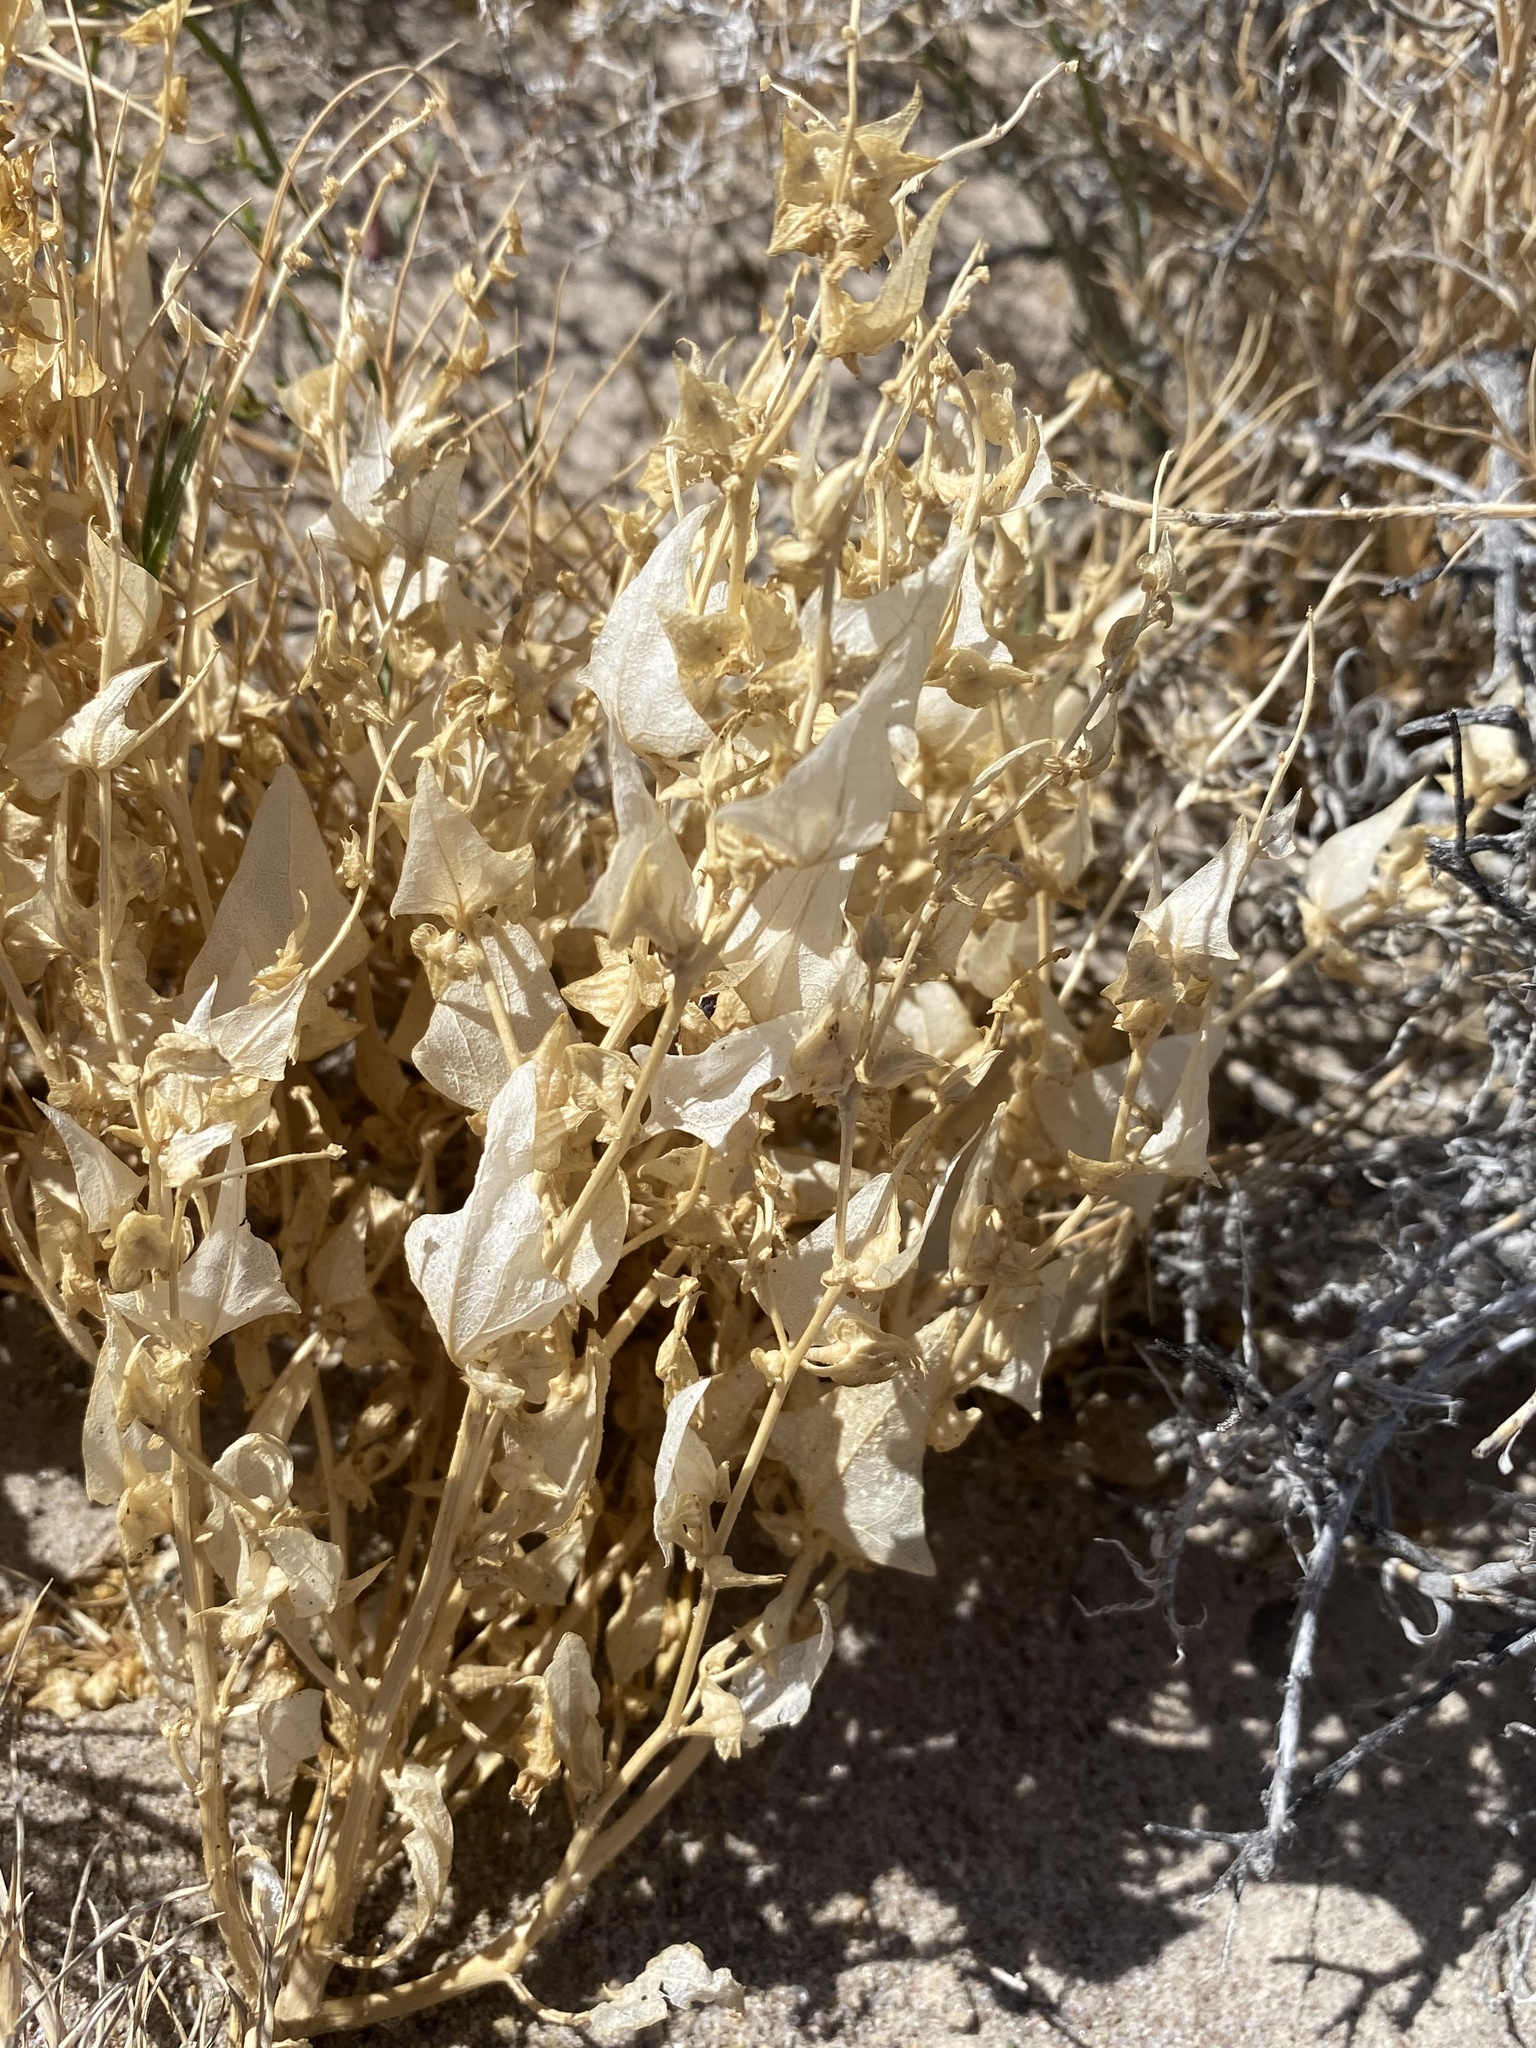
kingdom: Plantae
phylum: Tracheophyta
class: Magnoliopsida
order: Caryophyllales
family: Amaranthaceae
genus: Stutzia
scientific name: Stutzia covillei
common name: Coville's orach
